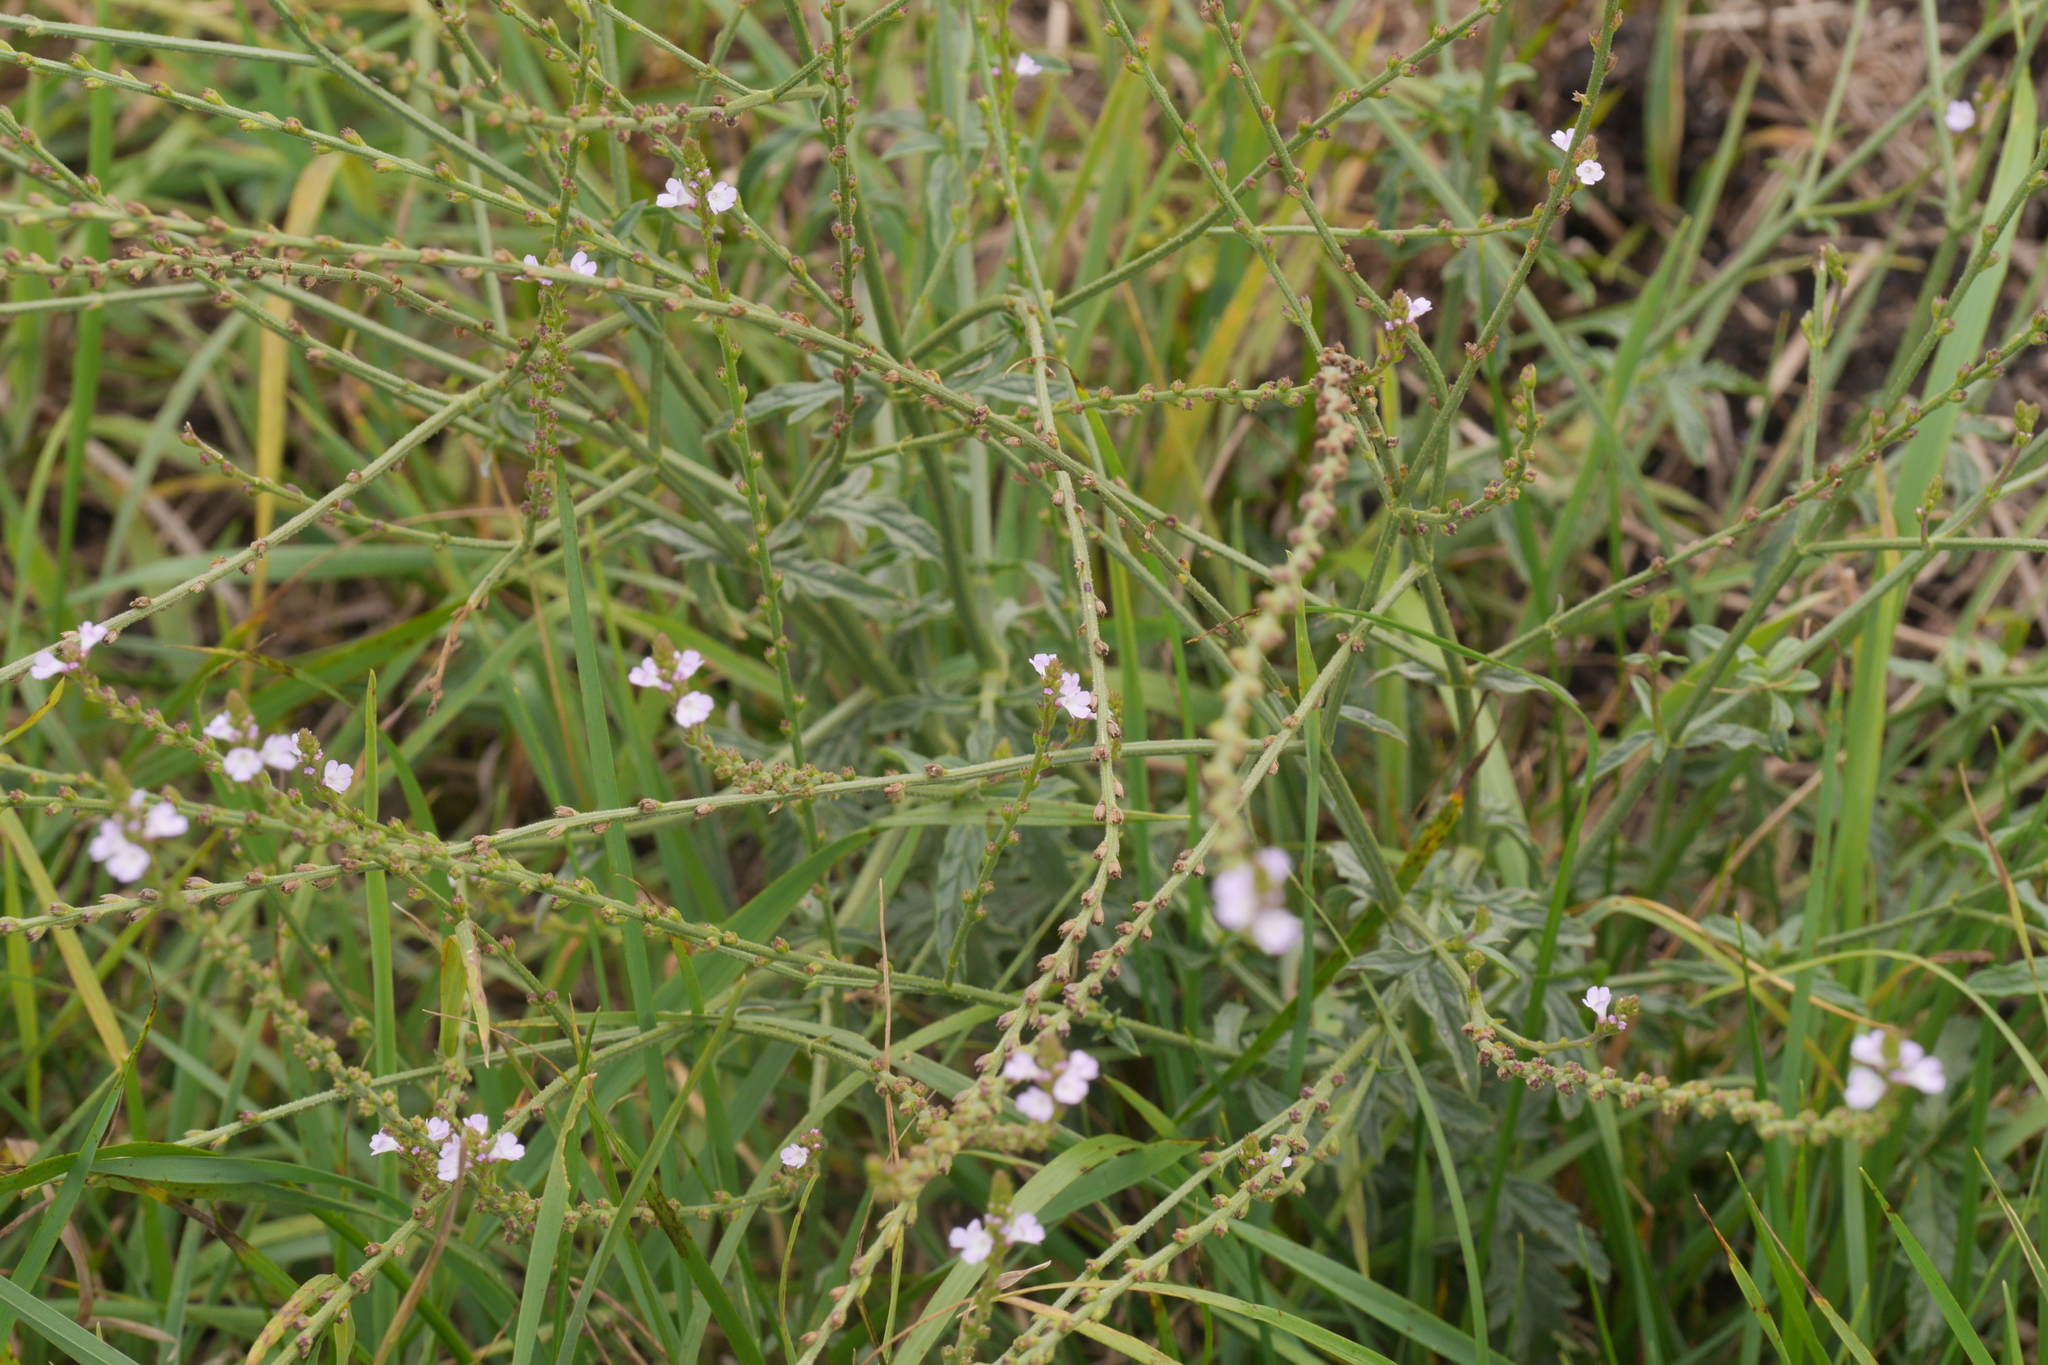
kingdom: Plantae
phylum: Tracheophyta
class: Magnoliopsida
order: Lamiales
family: Verbenaceae
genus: Verbena
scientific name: Verbena officinalis
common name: Vervain
